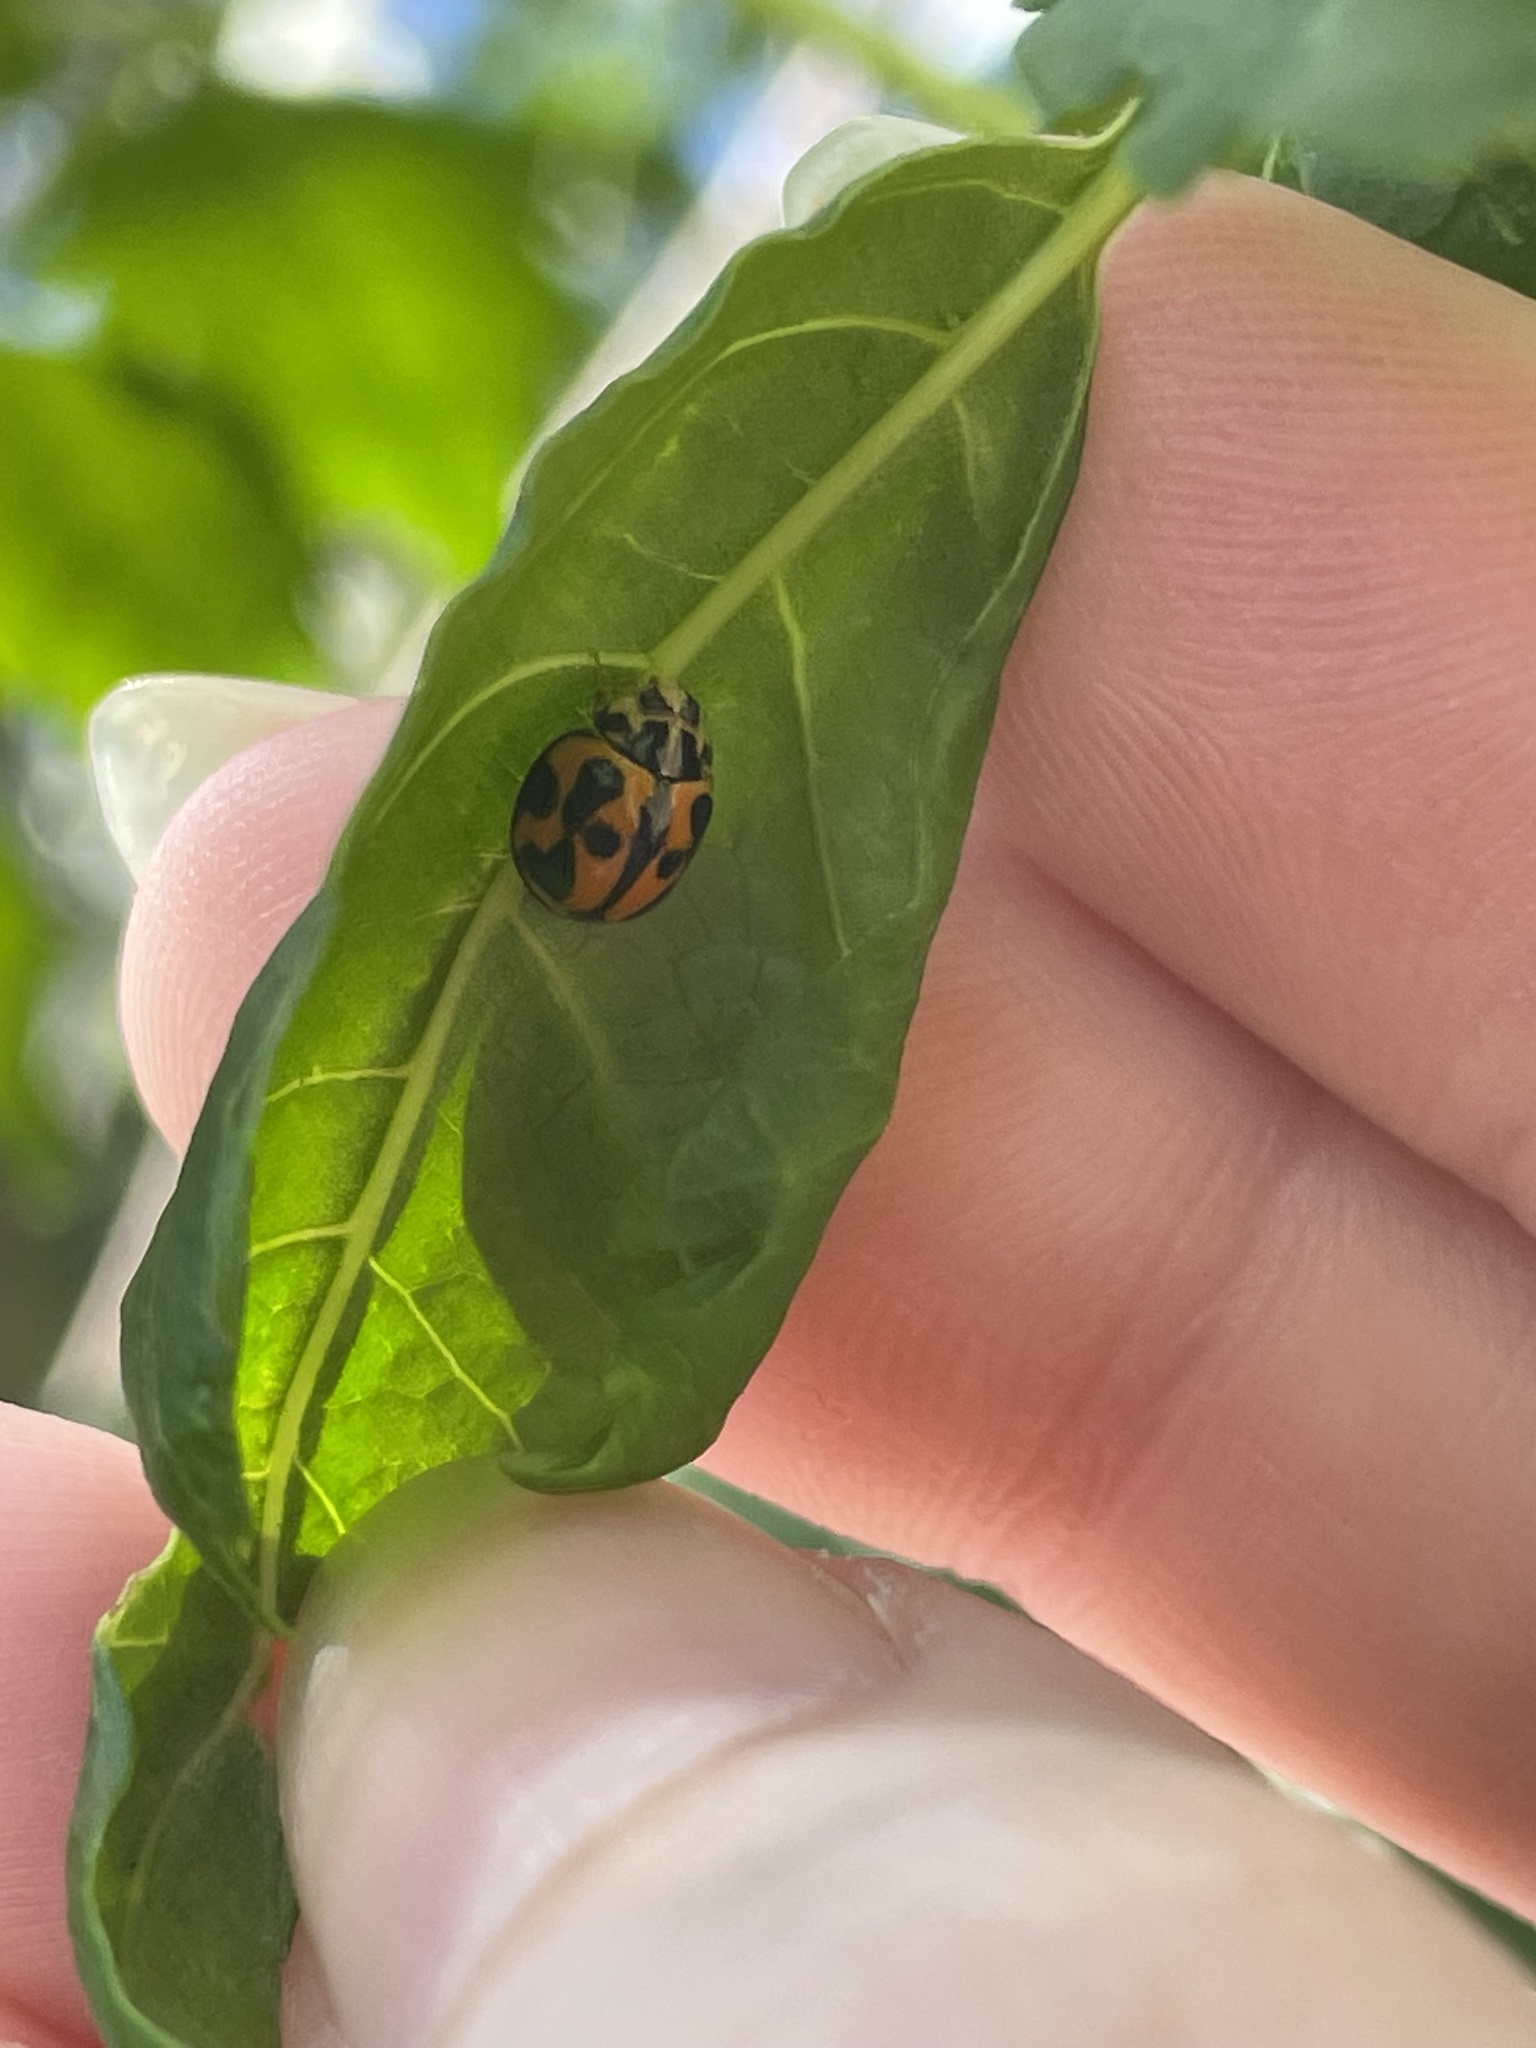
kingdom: Animalia
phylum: Arthropoda
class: Insecta
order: Coleoptera
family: Coccinellidae
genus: Coelophora
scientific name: Coelophora inaequalis
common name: Common australian lady beetle
